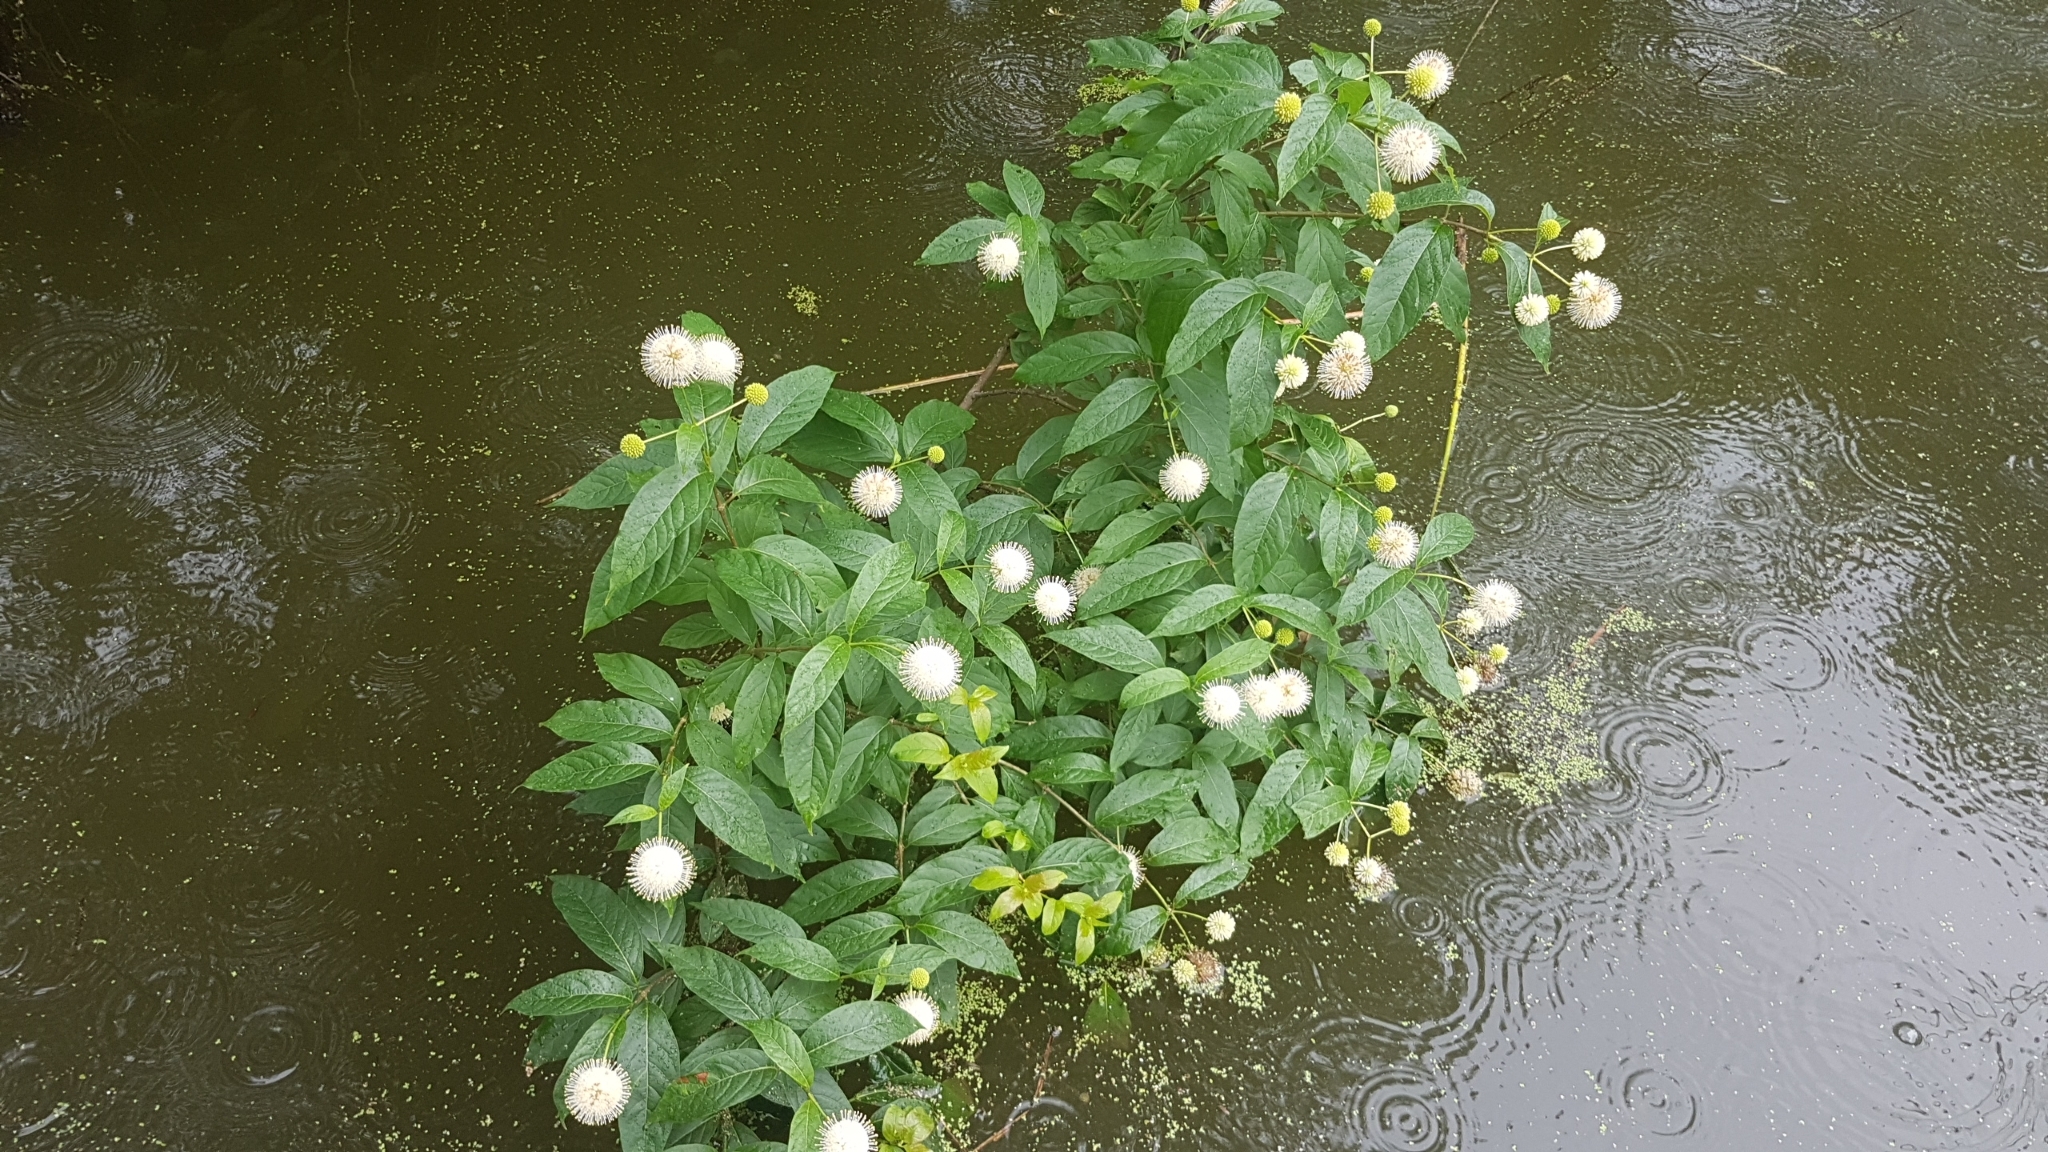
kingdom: Plantae
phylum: Tracheophyta
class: Magnoliopsida
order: Gentianales
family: Rubiaceae
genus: Cephalanthus
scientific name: Cephalanthus occidentalis
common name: Button-willow
